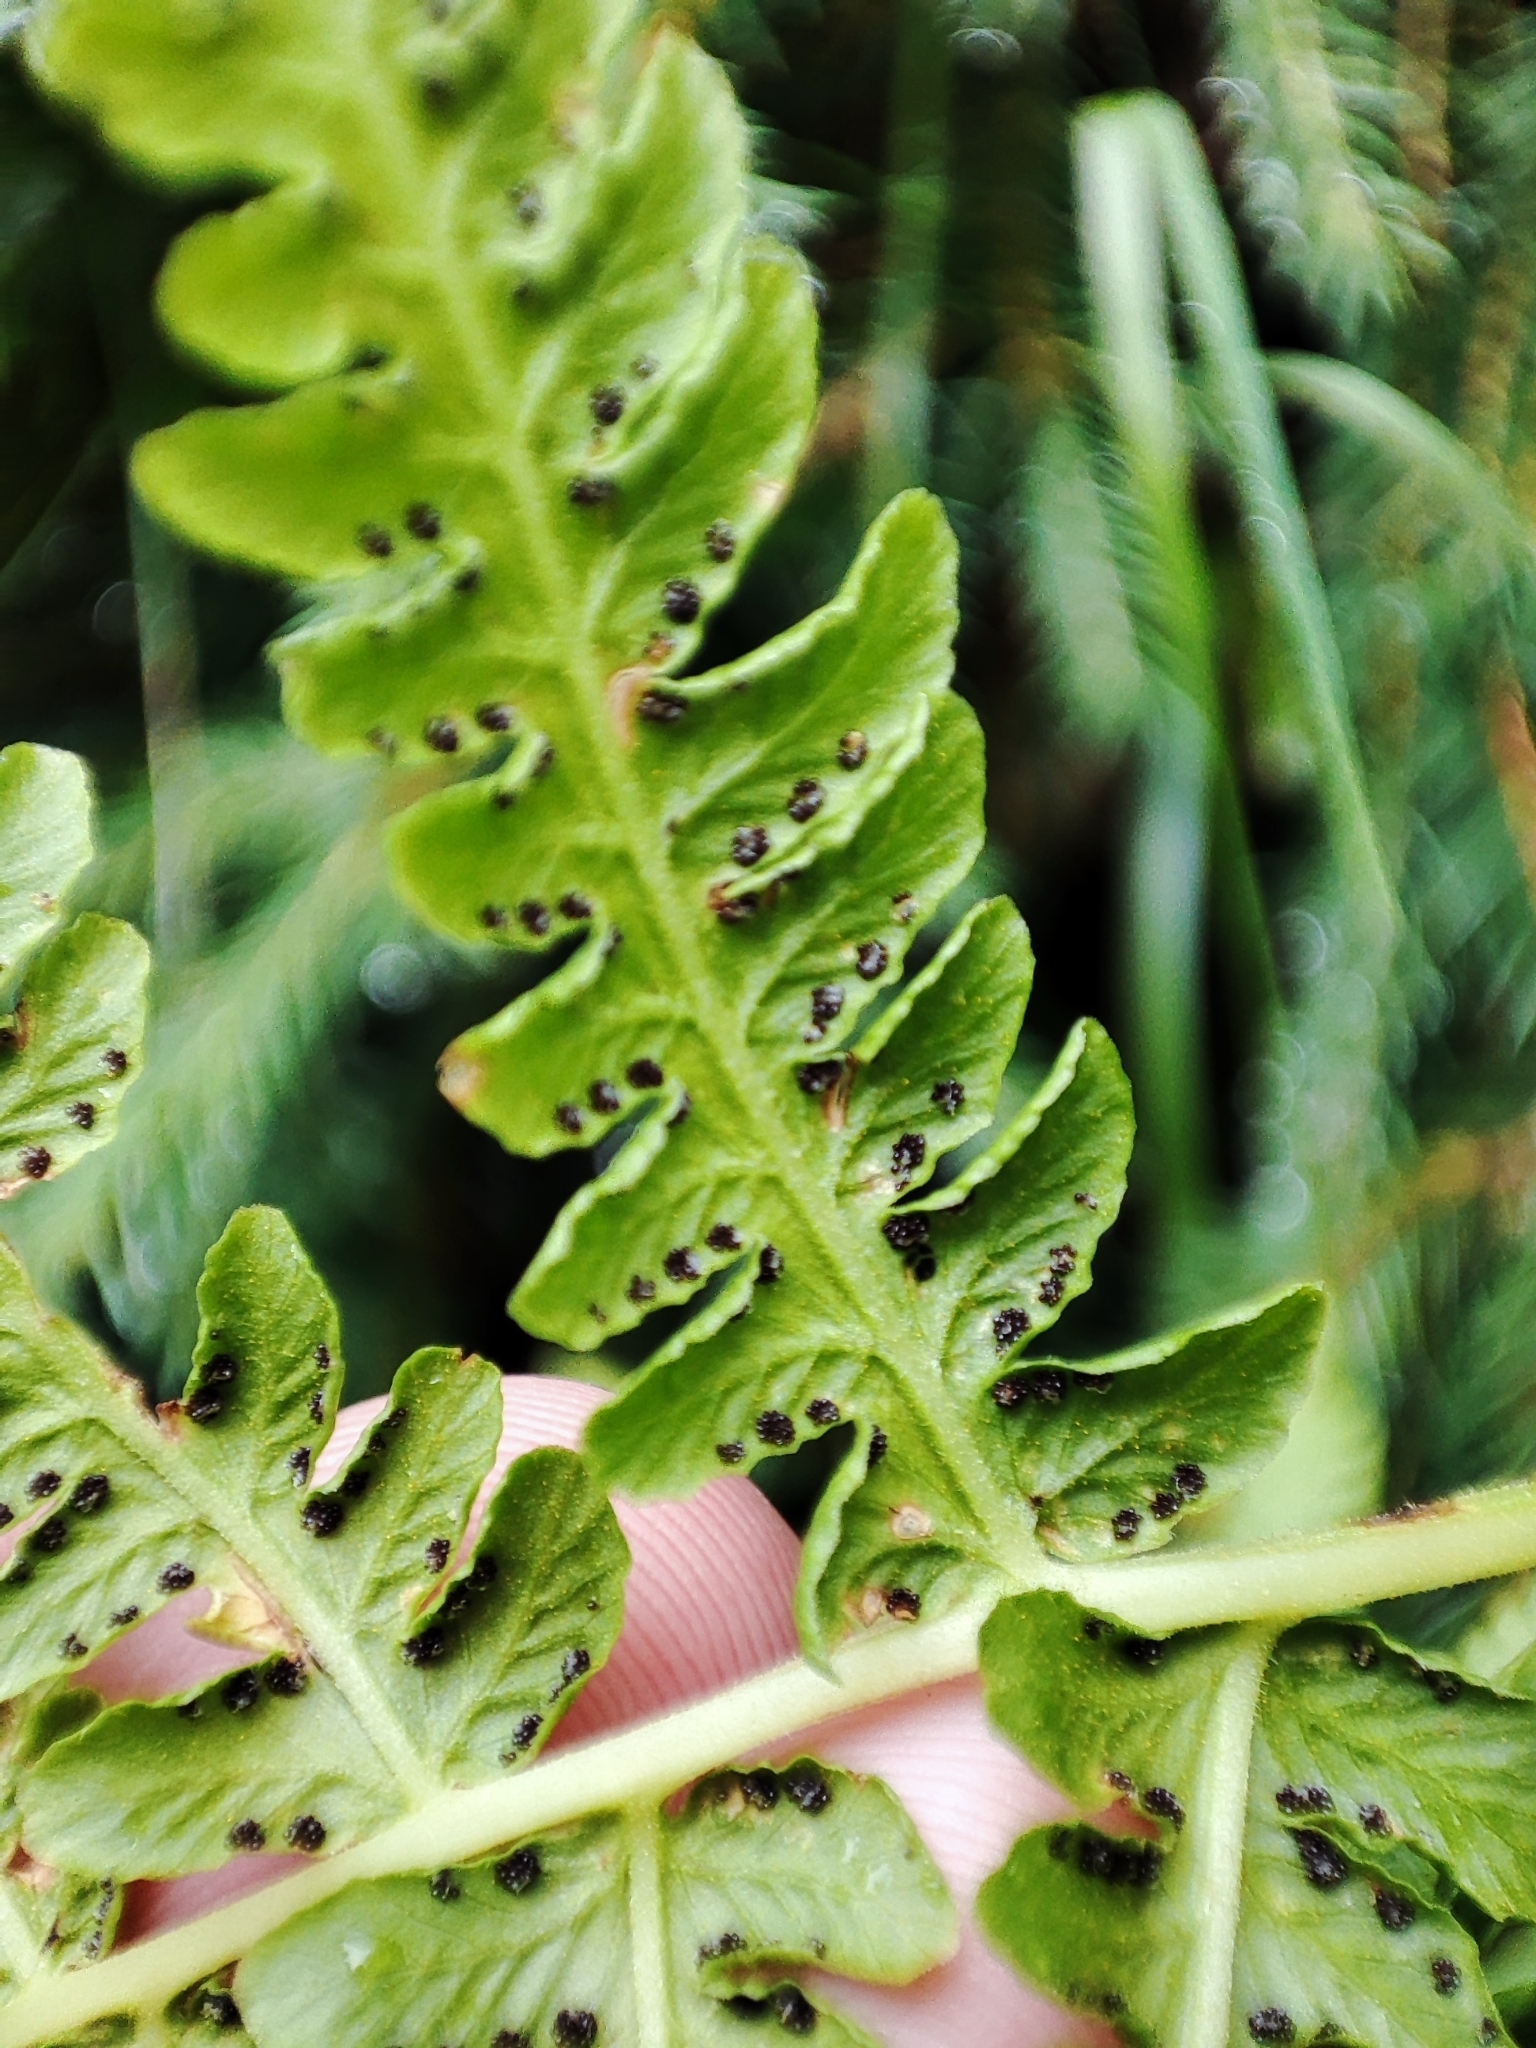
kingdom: Plantae
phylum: Tracheophyta
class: Polypodiopsida
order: Polypodiales
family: Thelypteridaceae
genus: Oreopteris
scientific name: Oreopteris limbosperma
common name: Lemon-scented fern
